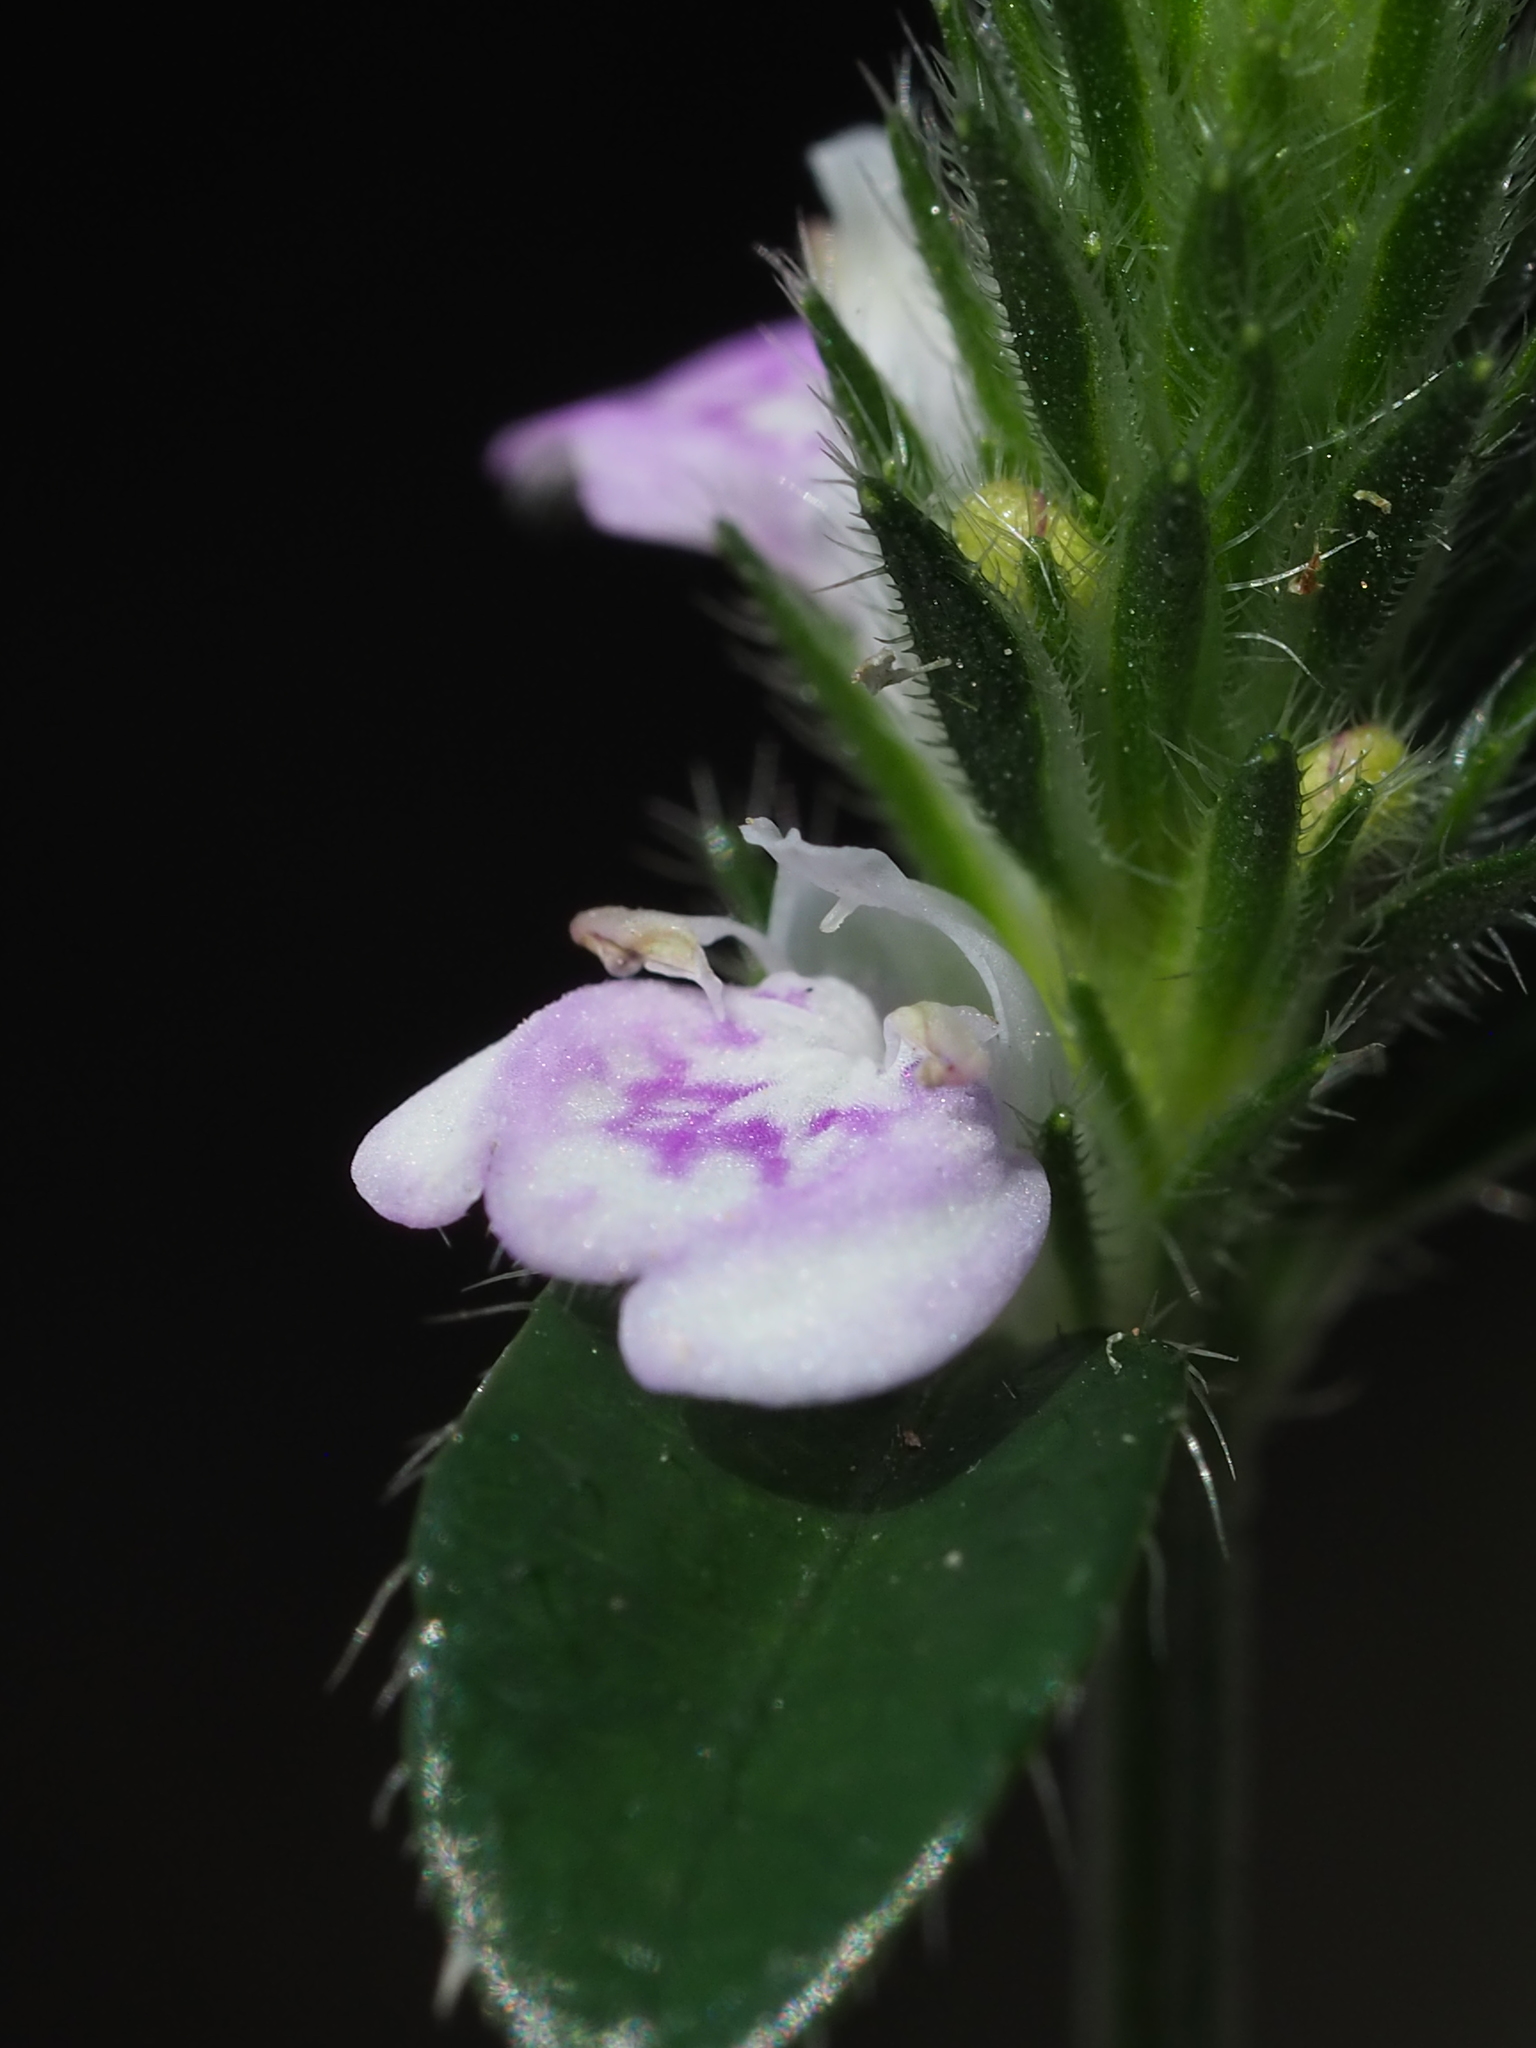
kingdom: Plantae
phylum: Tracheophyta
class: Magnoliopsida
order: Lamiales
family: Acanthaceae
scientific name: Acanthaceae
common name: Acanthaceae
